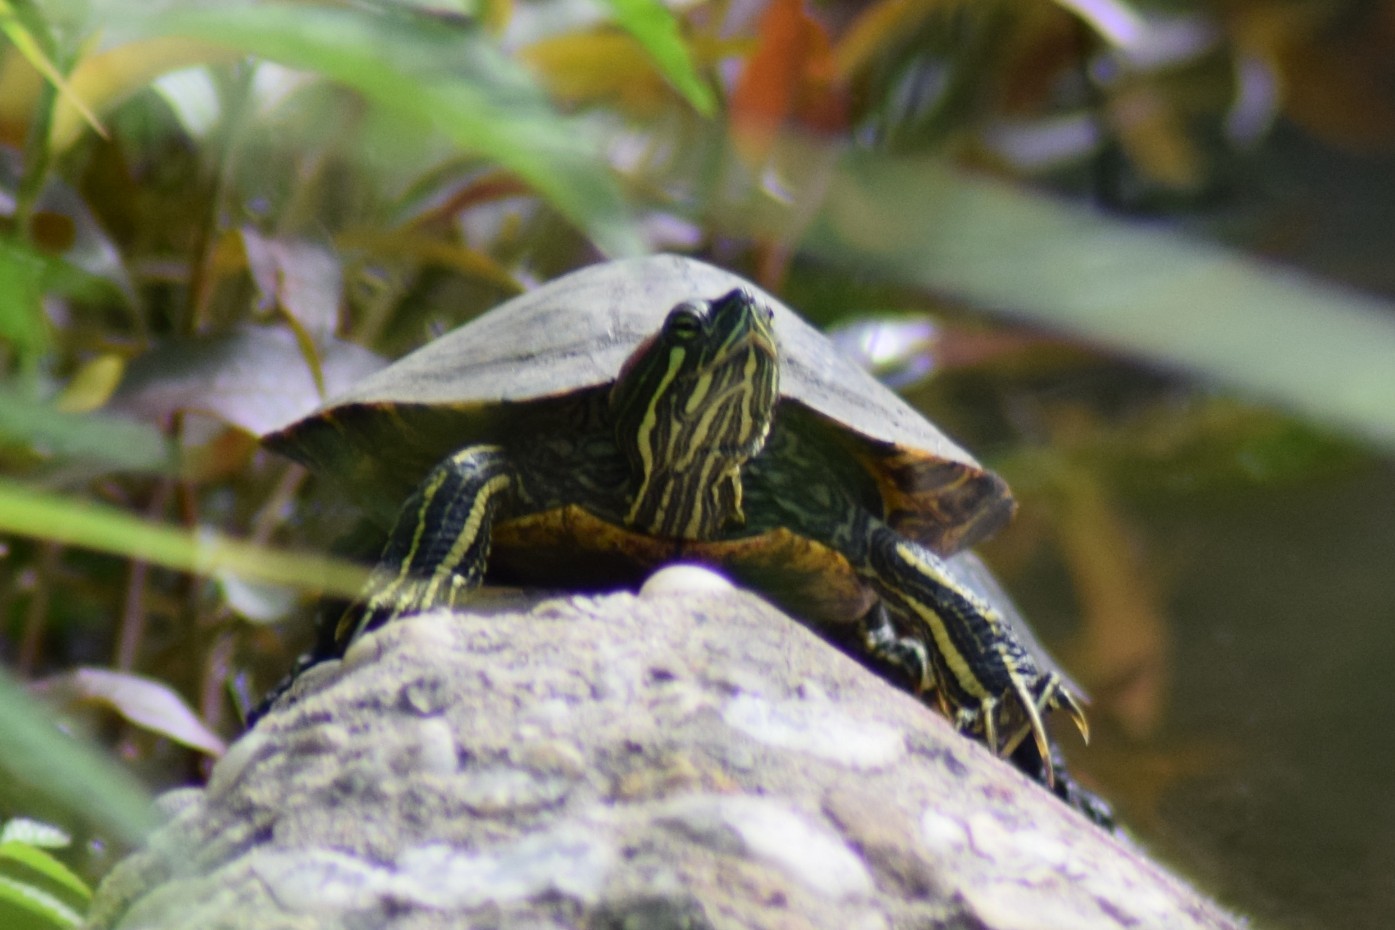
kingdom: Animalia
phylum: Chordata
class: Testudines
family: Emydidae
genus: Trachemys
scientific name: Trachemys scripta
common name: Slider
